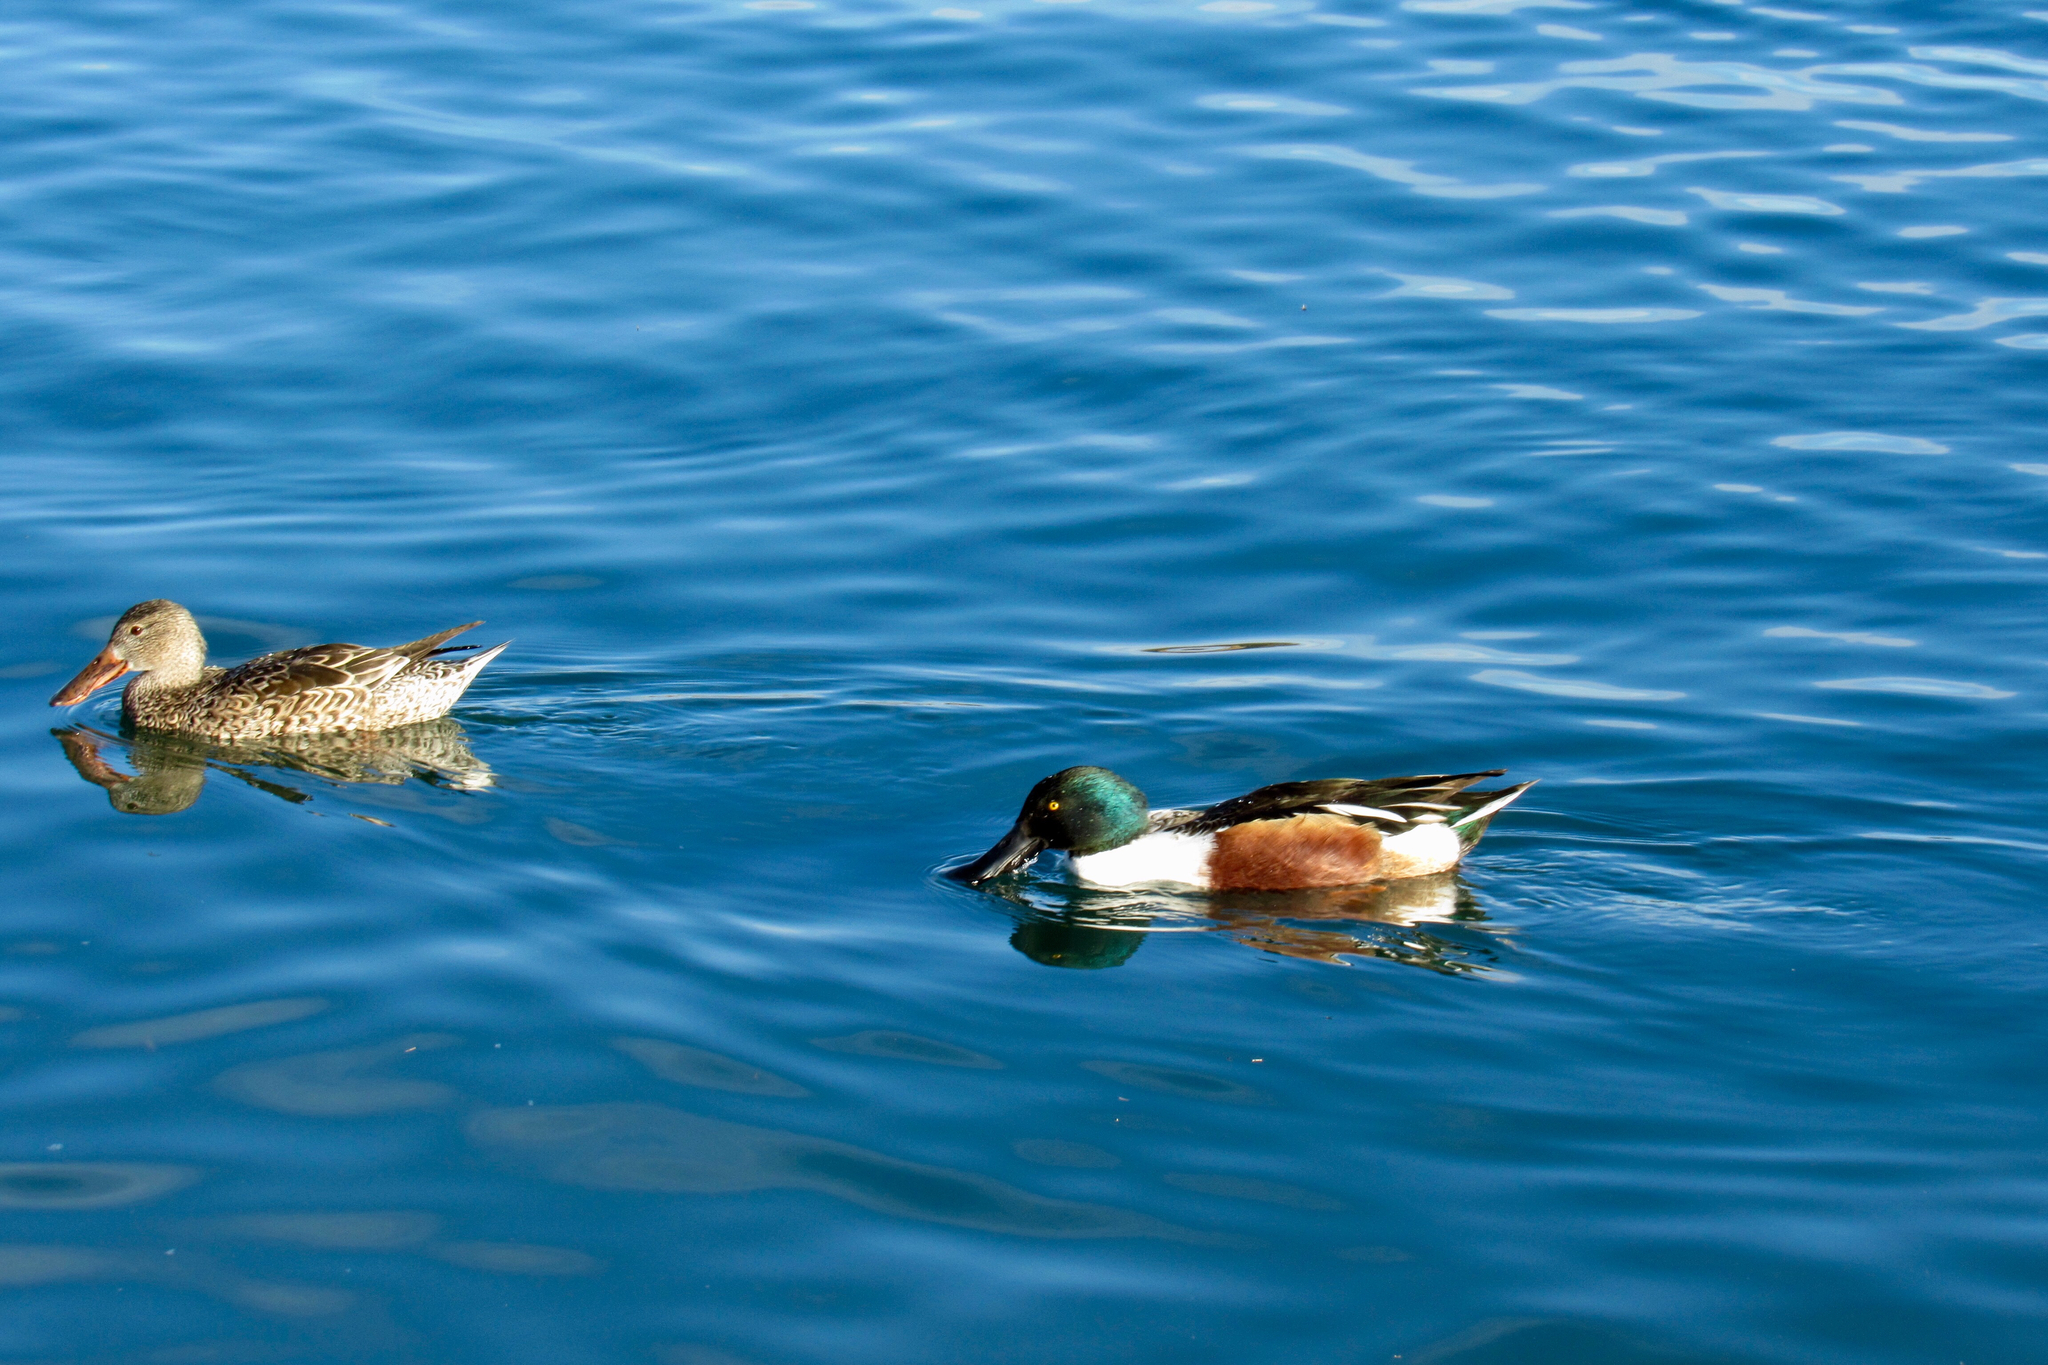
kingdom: Animalia
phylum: Chordata
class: Aves
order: Anseriformes
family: Anatidae
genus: Spatula
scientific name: Spatula clypeata
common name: Northern shoveler
